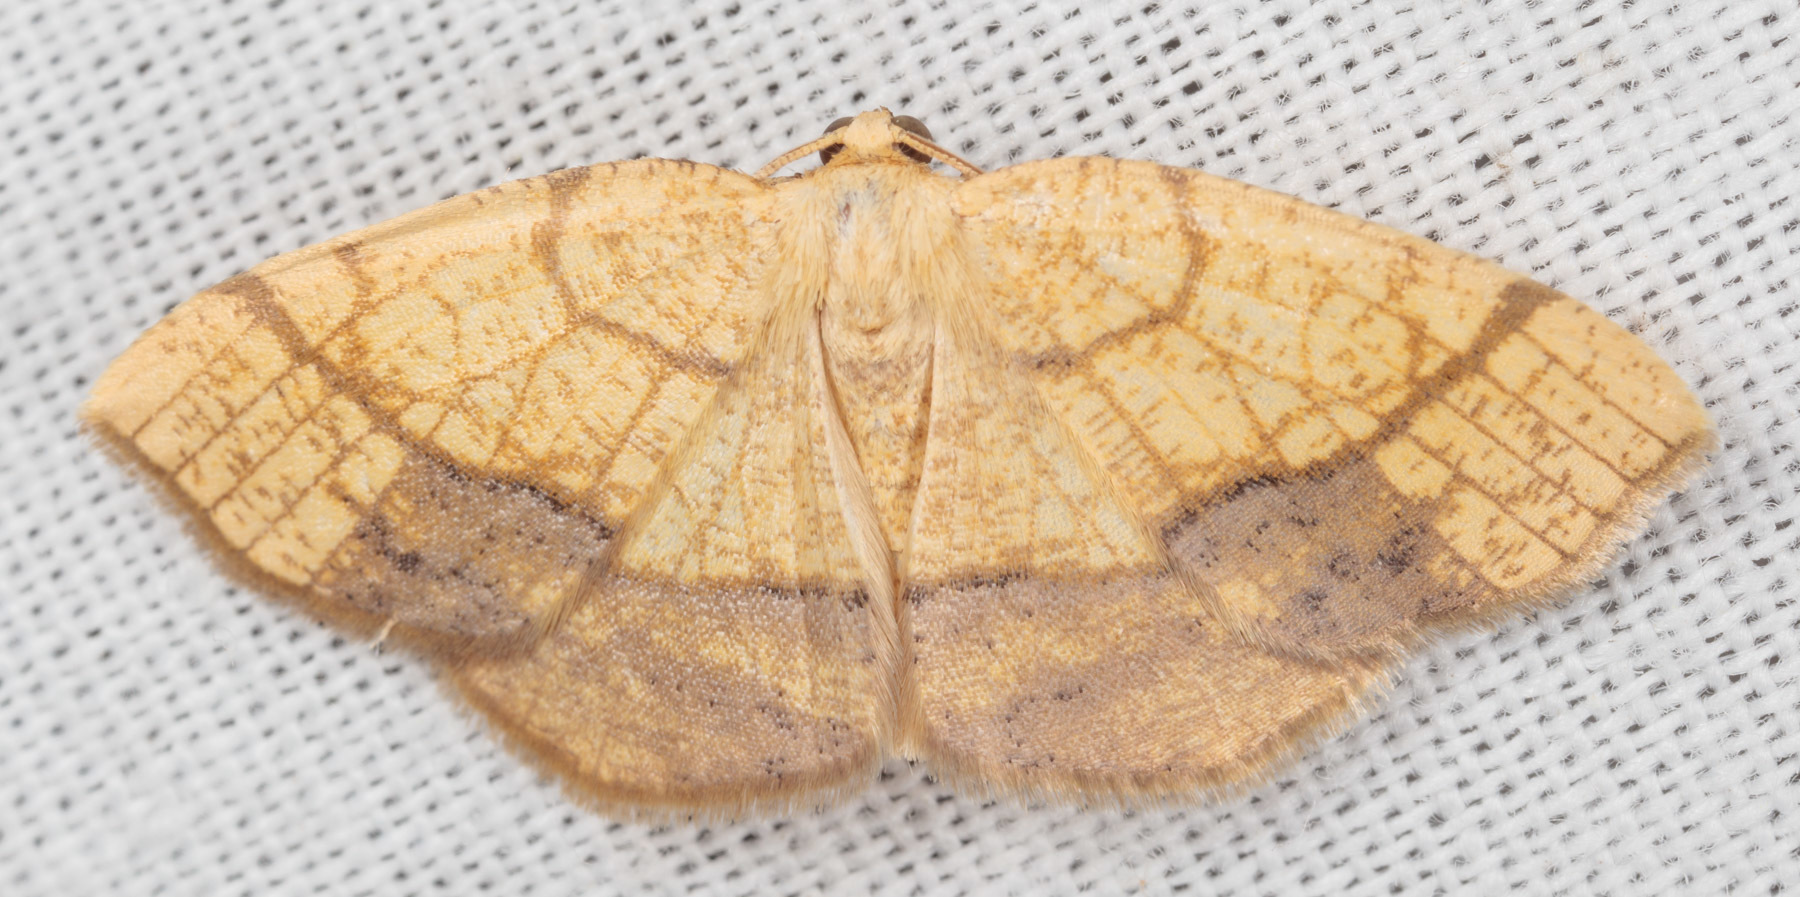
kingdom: Animalia
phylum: Arthropoda
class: Insecta
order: Lepidoptera
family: Geometridae
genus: Nematocampa
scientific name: Nematocampa resistaria
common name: Horned spanworm moth
